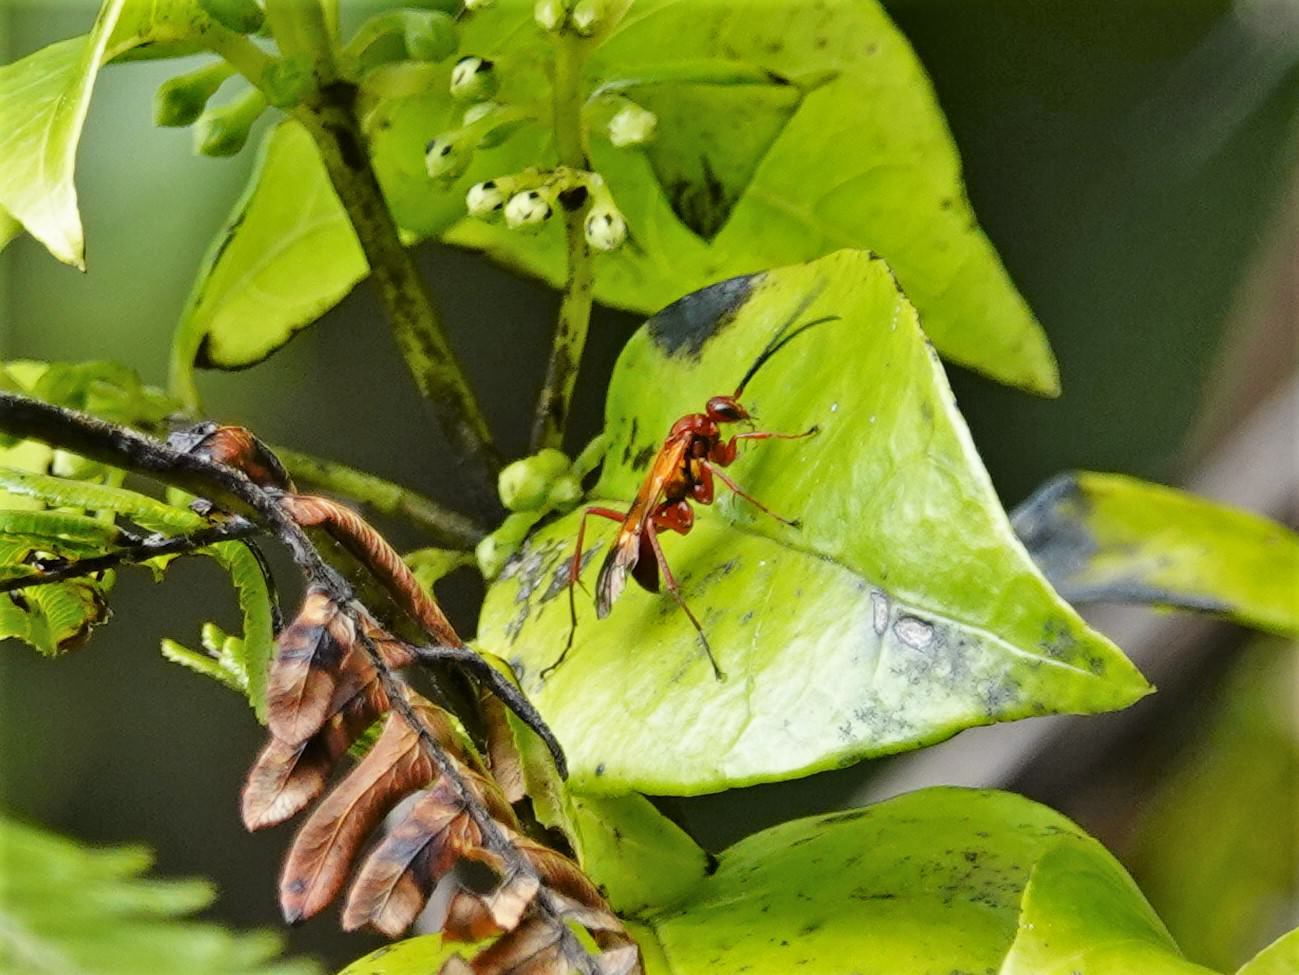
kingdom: Animalia
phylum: Arthropoda
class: Insecta
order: Hymenoptera
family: Pompilidae
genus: Sphictostethus
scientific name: Sphictostethus nitidus
